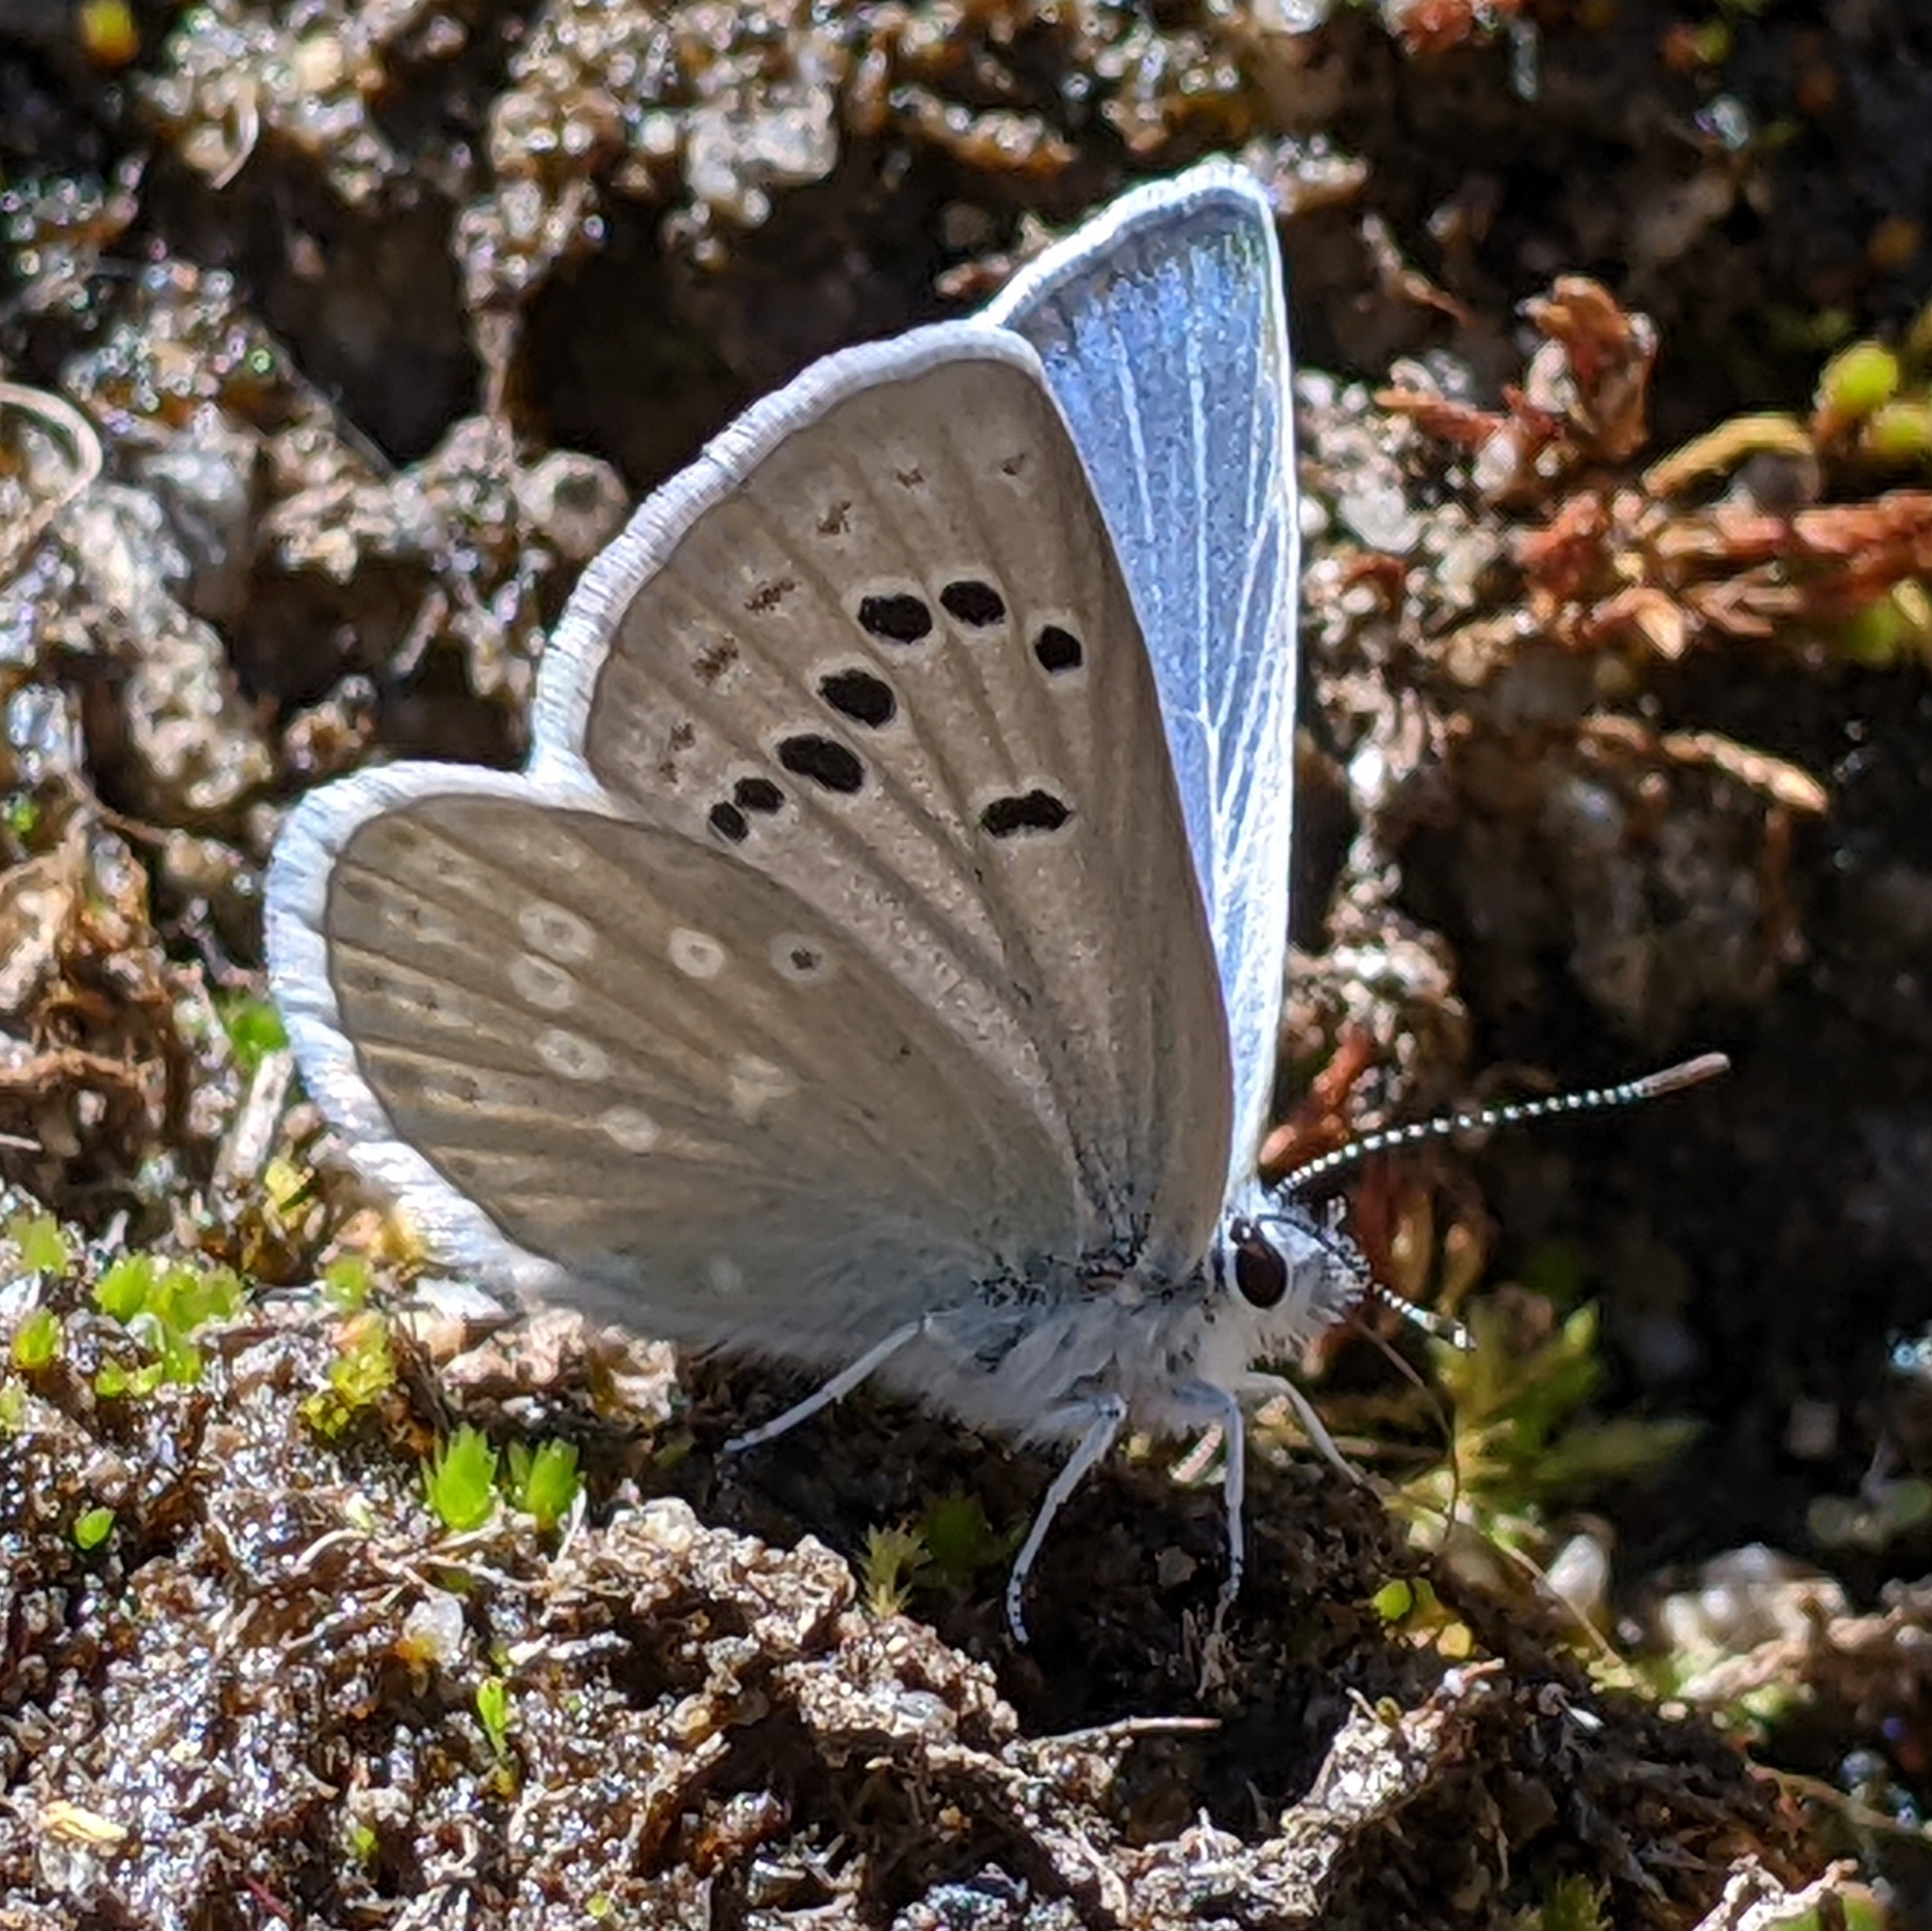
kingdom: Animalia
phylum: Arthropoda
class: Insecta
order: Lepidoptera
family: Lycaenidae
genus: Icaricia
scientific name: Icaricia icarioides
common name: Boisduval's blue
